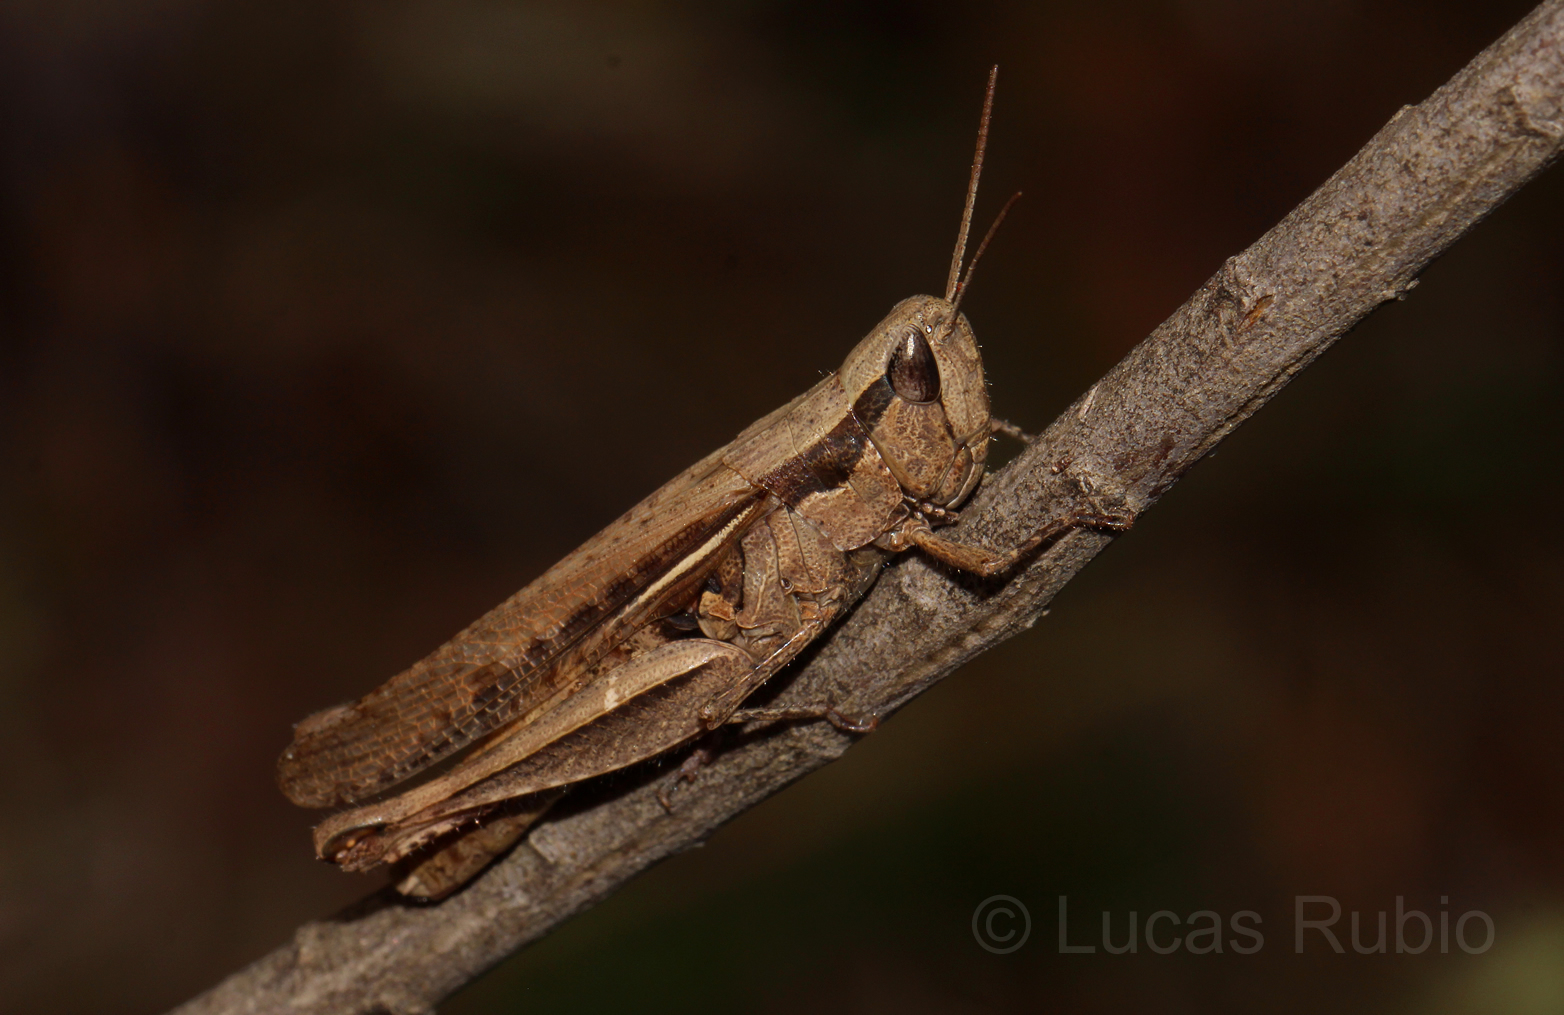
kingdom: Animalia
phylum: Arthropoda
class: Insecta
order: Orthoptera
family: Acrididae
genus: Euplectrotettix
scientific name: Euplectrotettix ferrugineus
